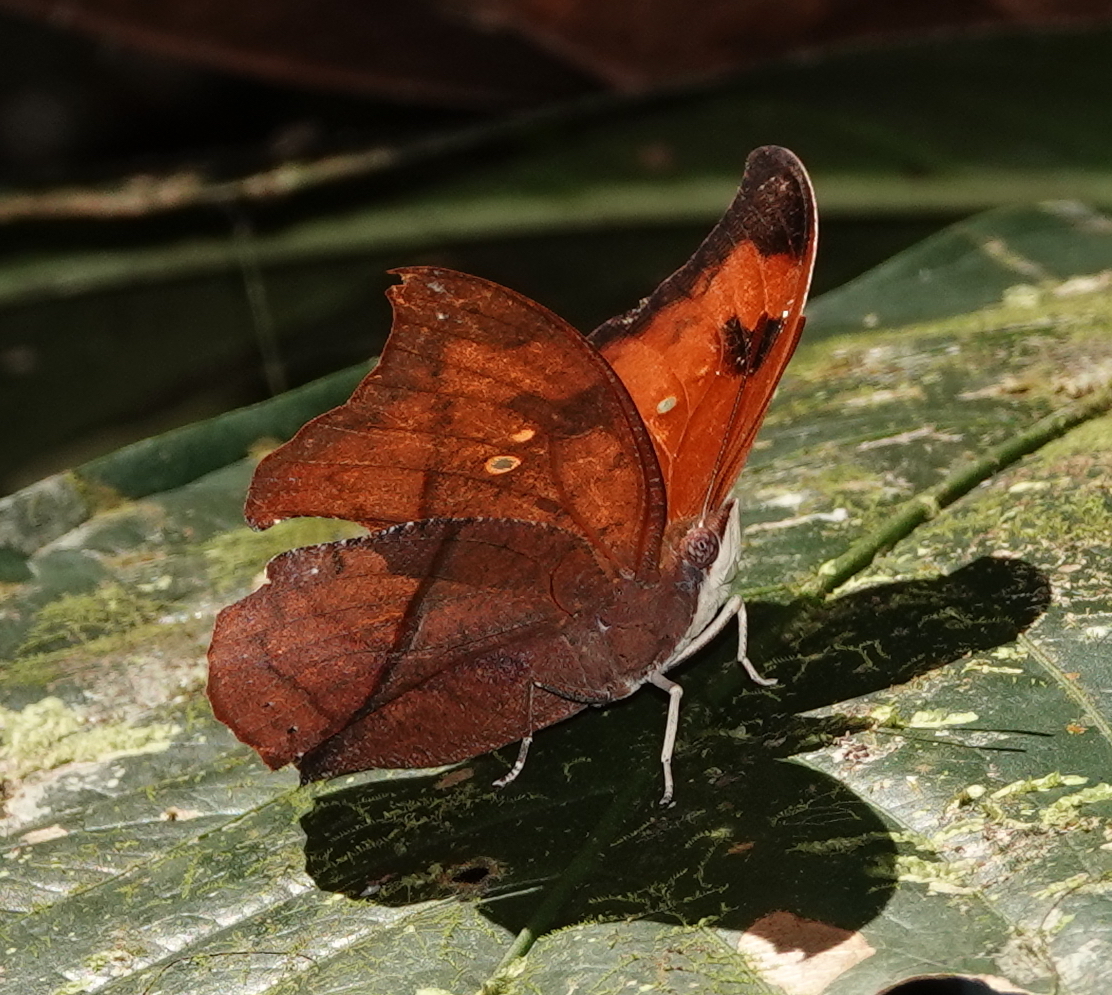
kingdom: Animalia
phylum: Arthropoda
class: Insecta
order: Lepidoptera
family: Nymphalidae
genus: Zaretis
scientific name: Zaretis itys
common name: Skeletonized leafwing
